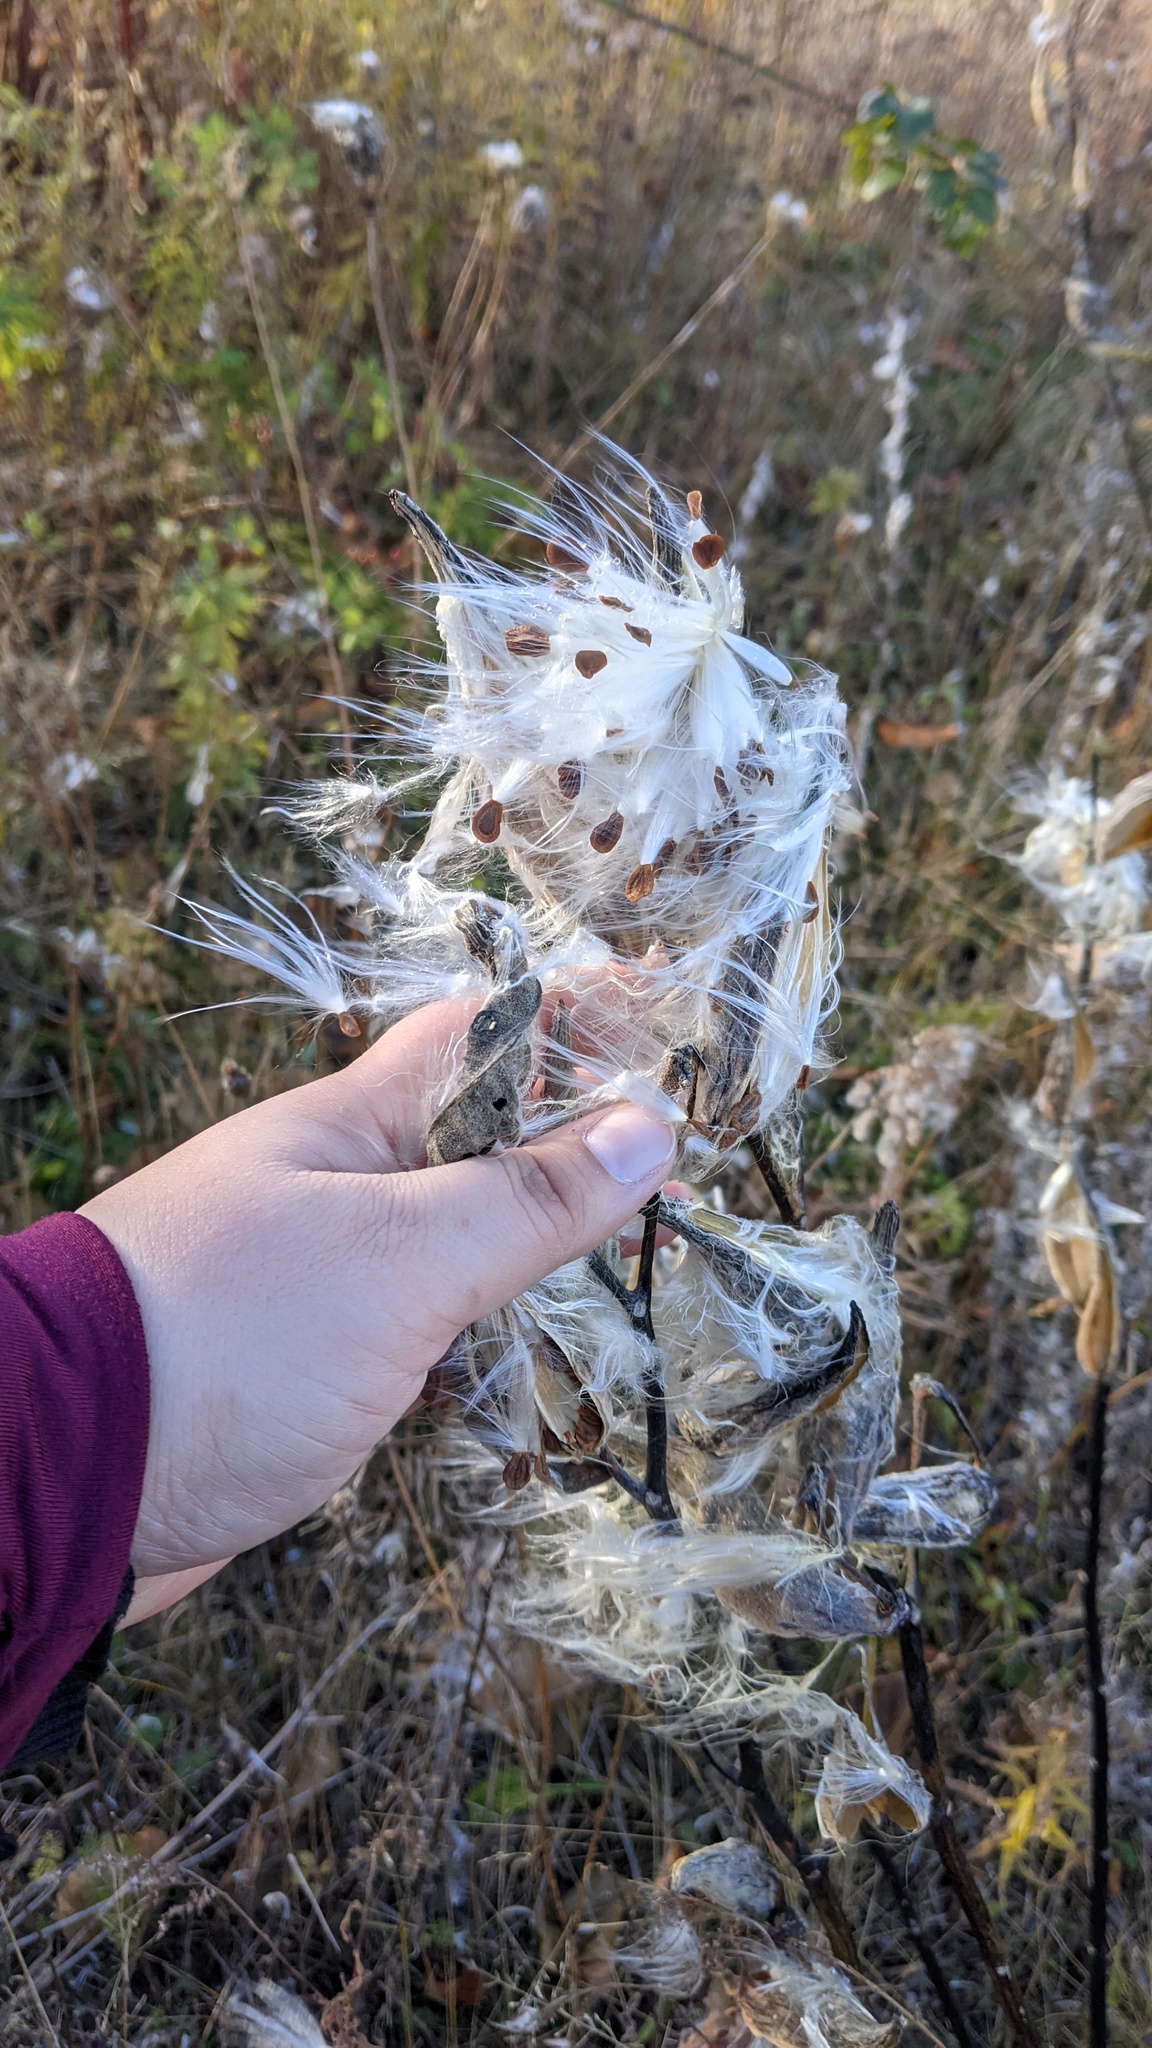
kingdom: Plantae
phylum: Tracheophyta
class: Magnoliopsida
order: Gentianales
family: Apocynaceae
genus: Asclepias
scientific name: Asclepias syriaca
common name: Common milkweed
